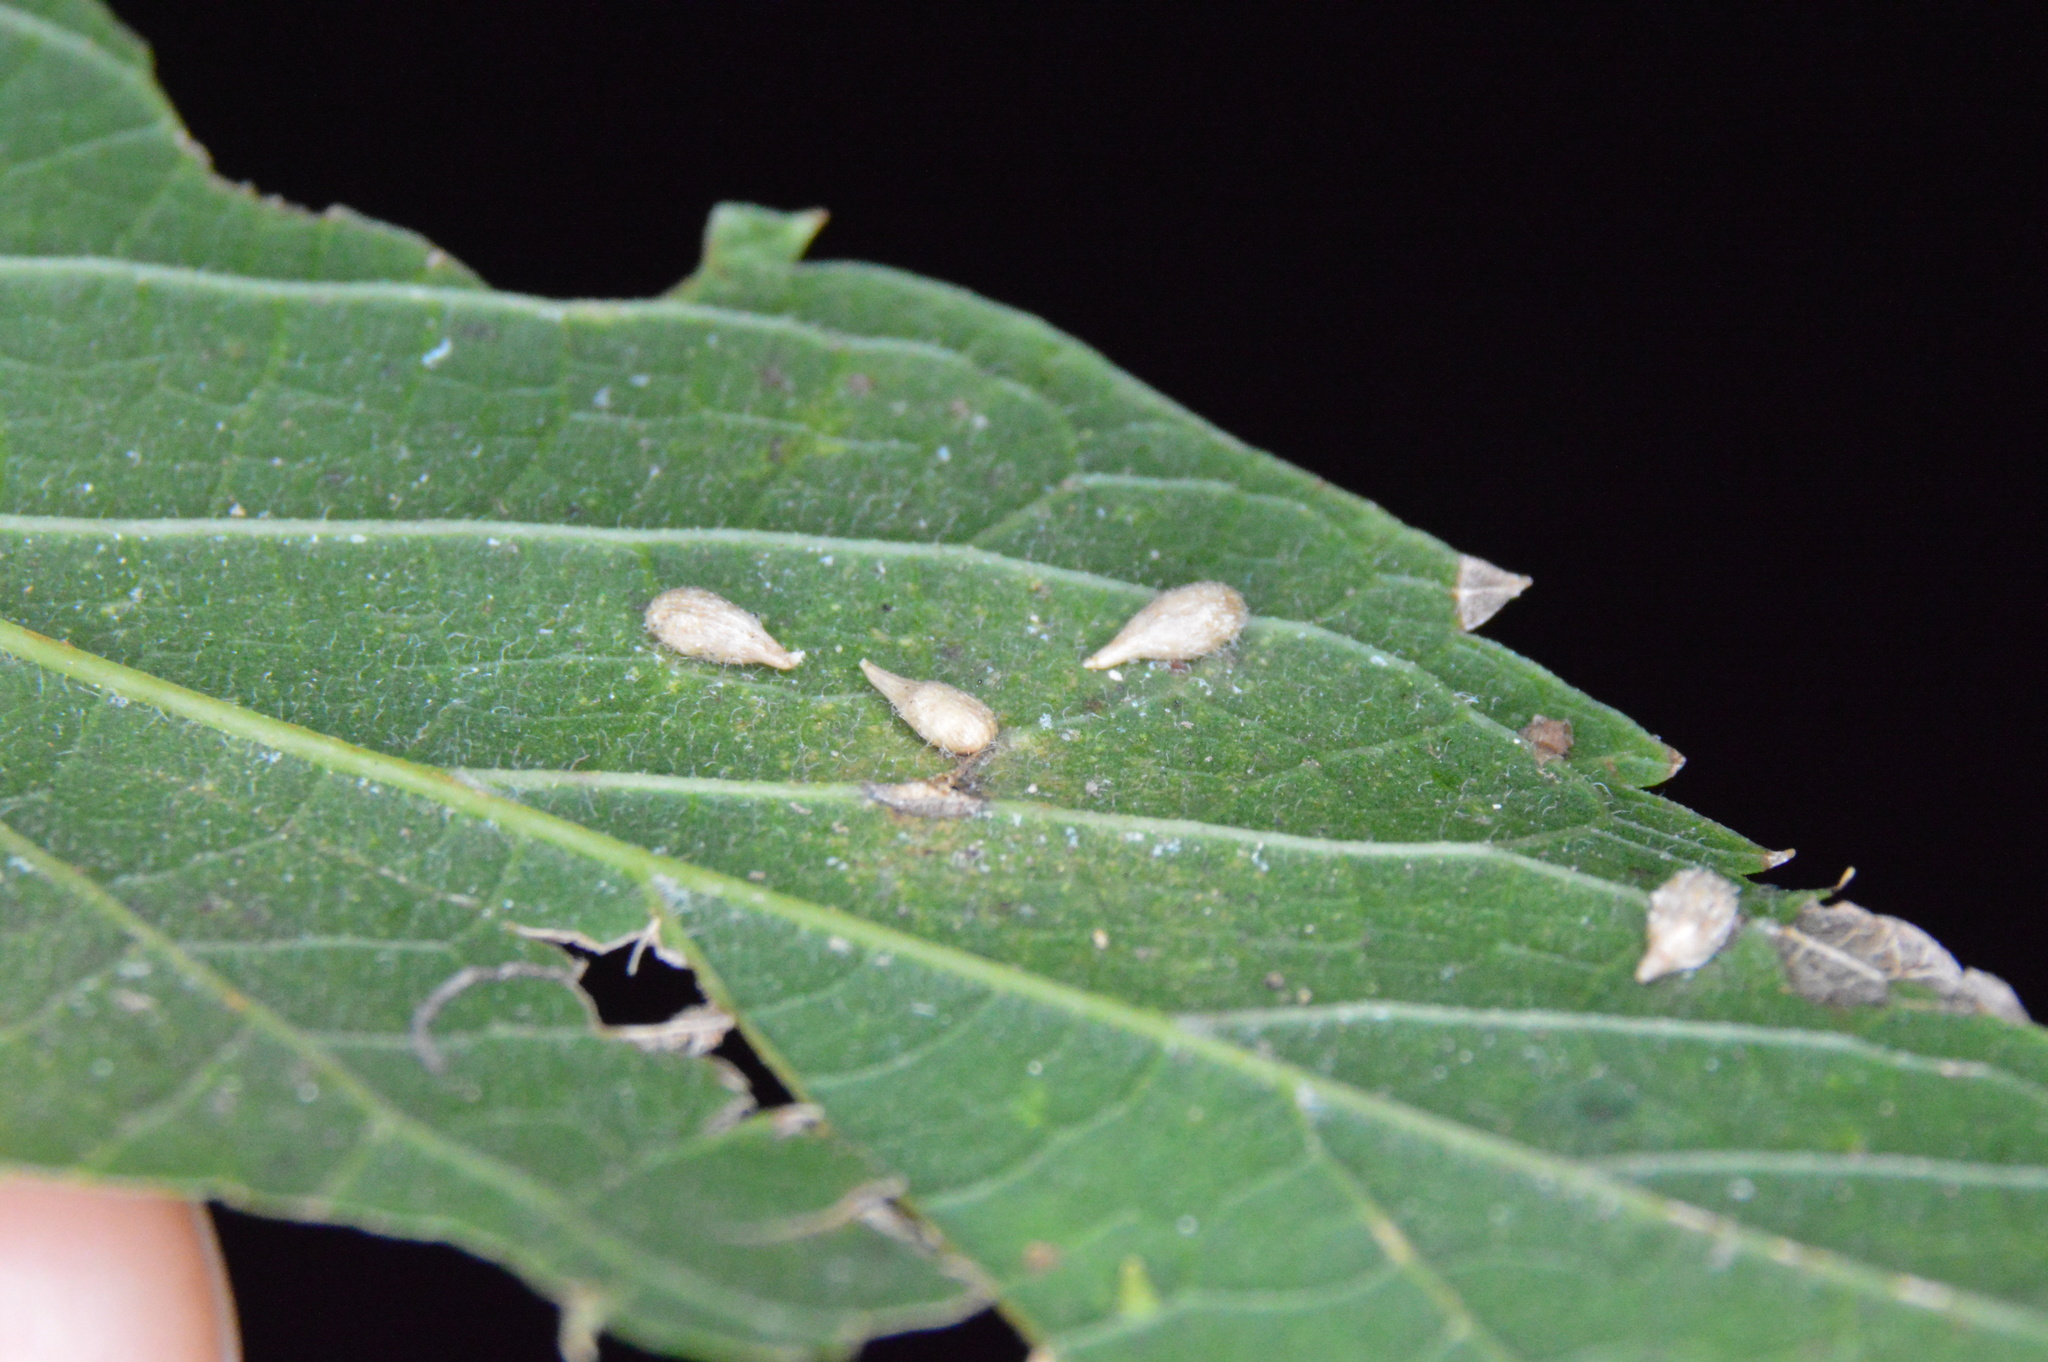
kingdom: Animalia
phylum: Arthropoda
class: Insecta
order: Diptera
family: Cecidomyiidae
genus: Celticecis
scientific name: Celticecis supina
